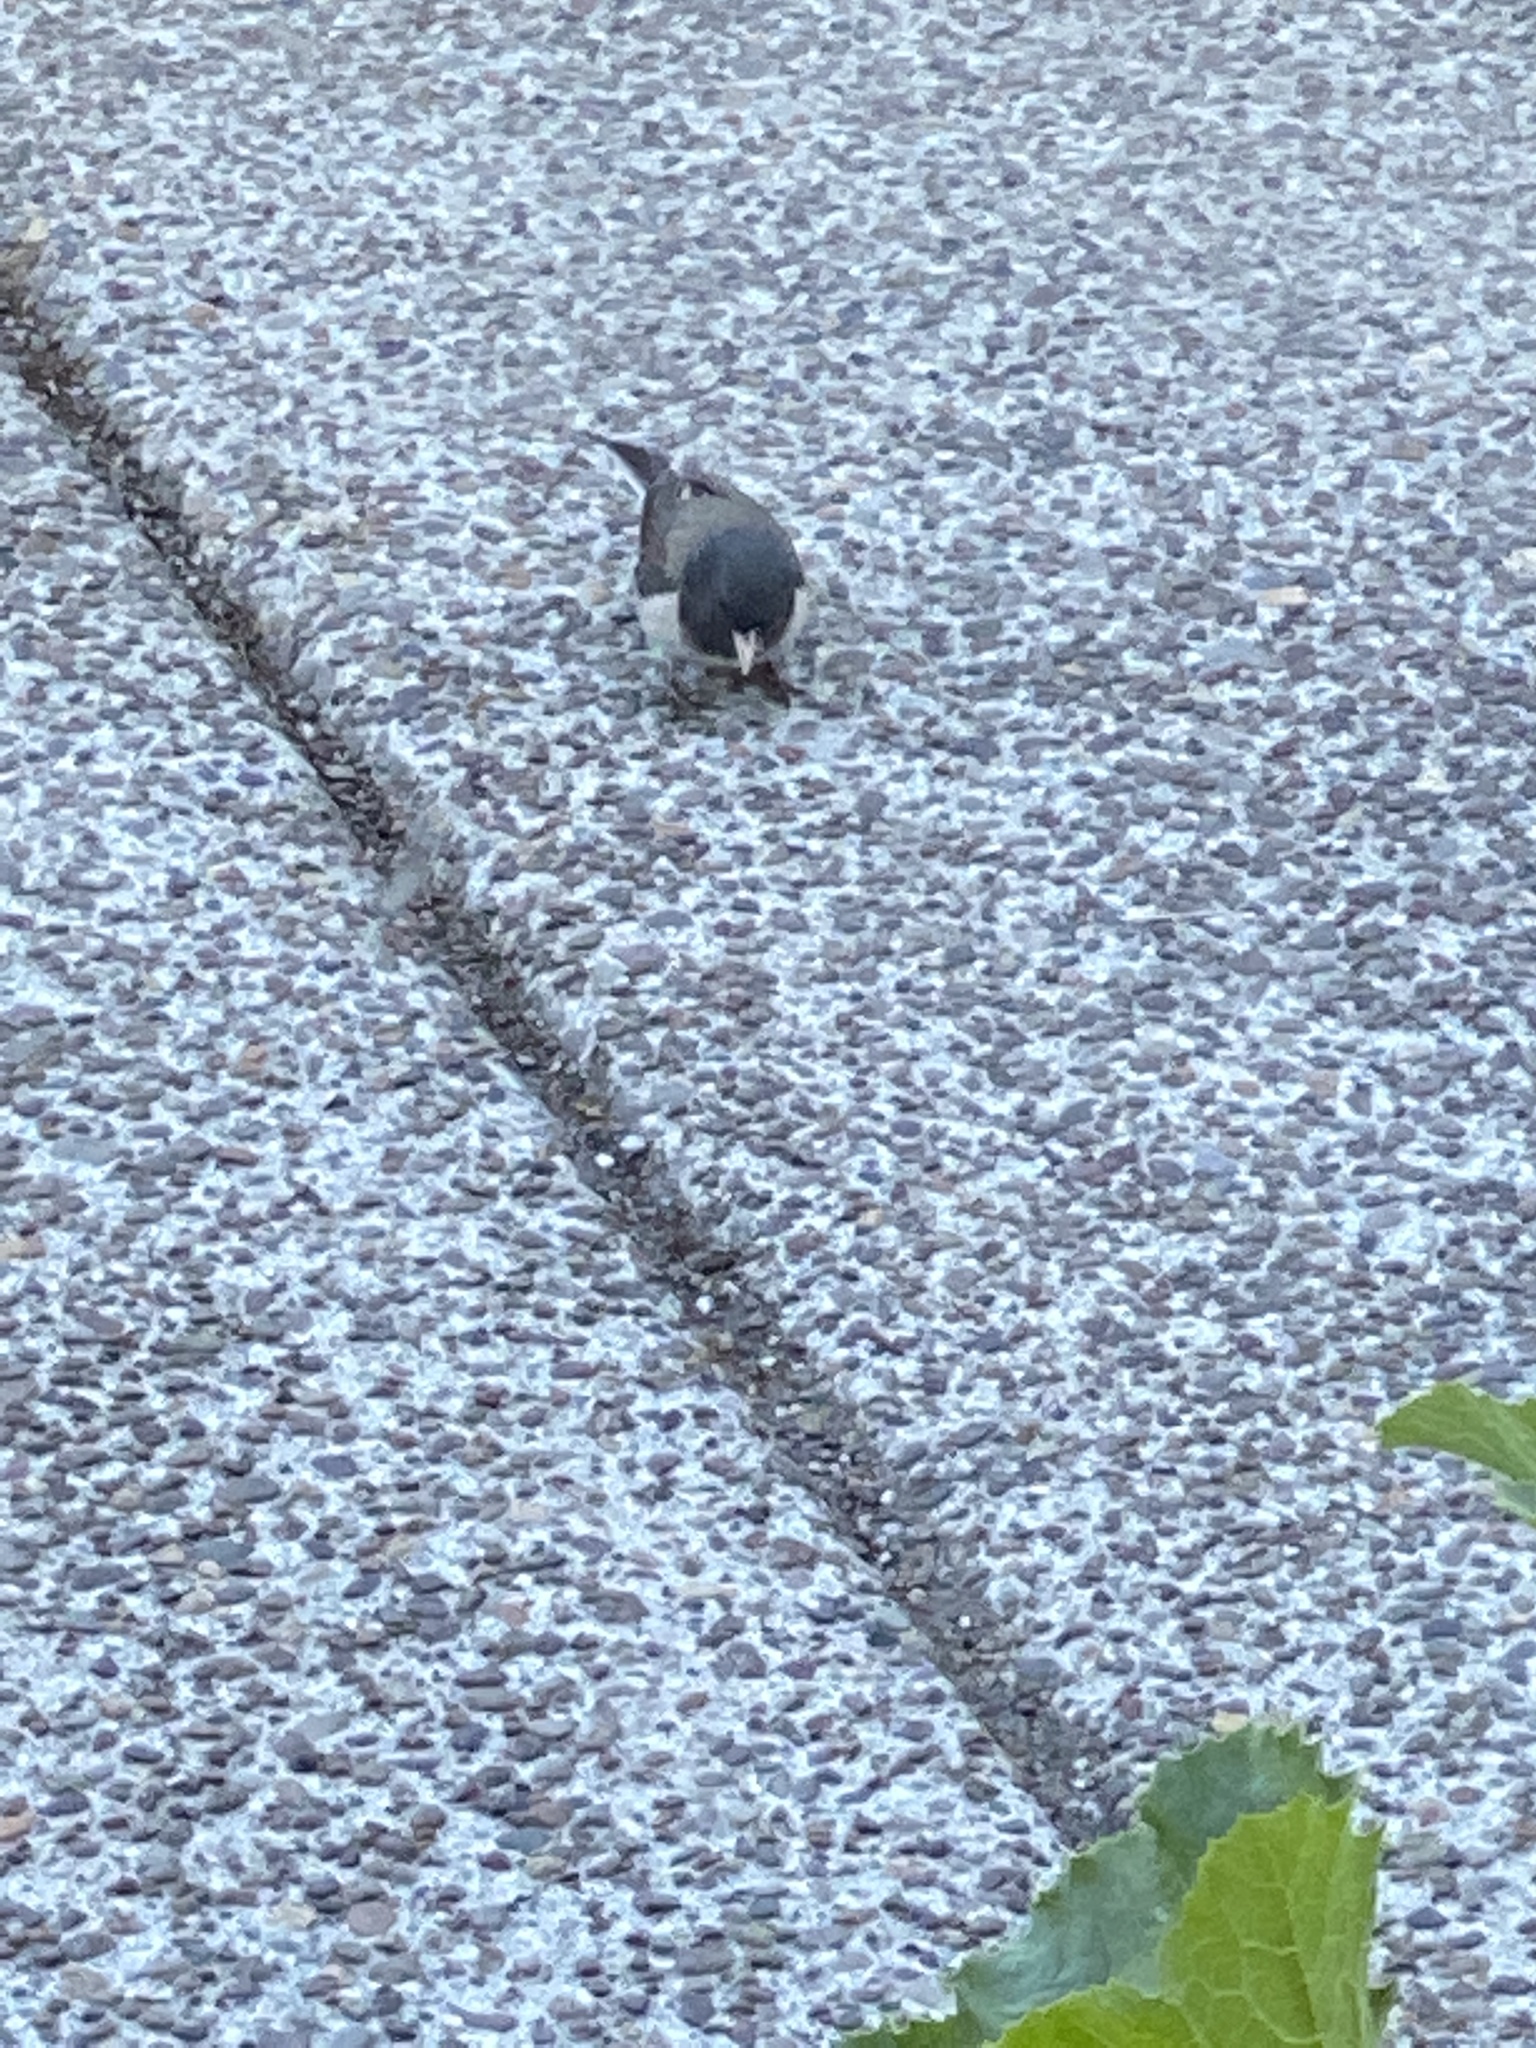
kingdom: Animalia
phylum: Chordata
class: Aves
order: Passeriformes
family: Passerellidae
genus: Junco
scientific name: Junco hyemalis
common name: Dark-eyed junco
